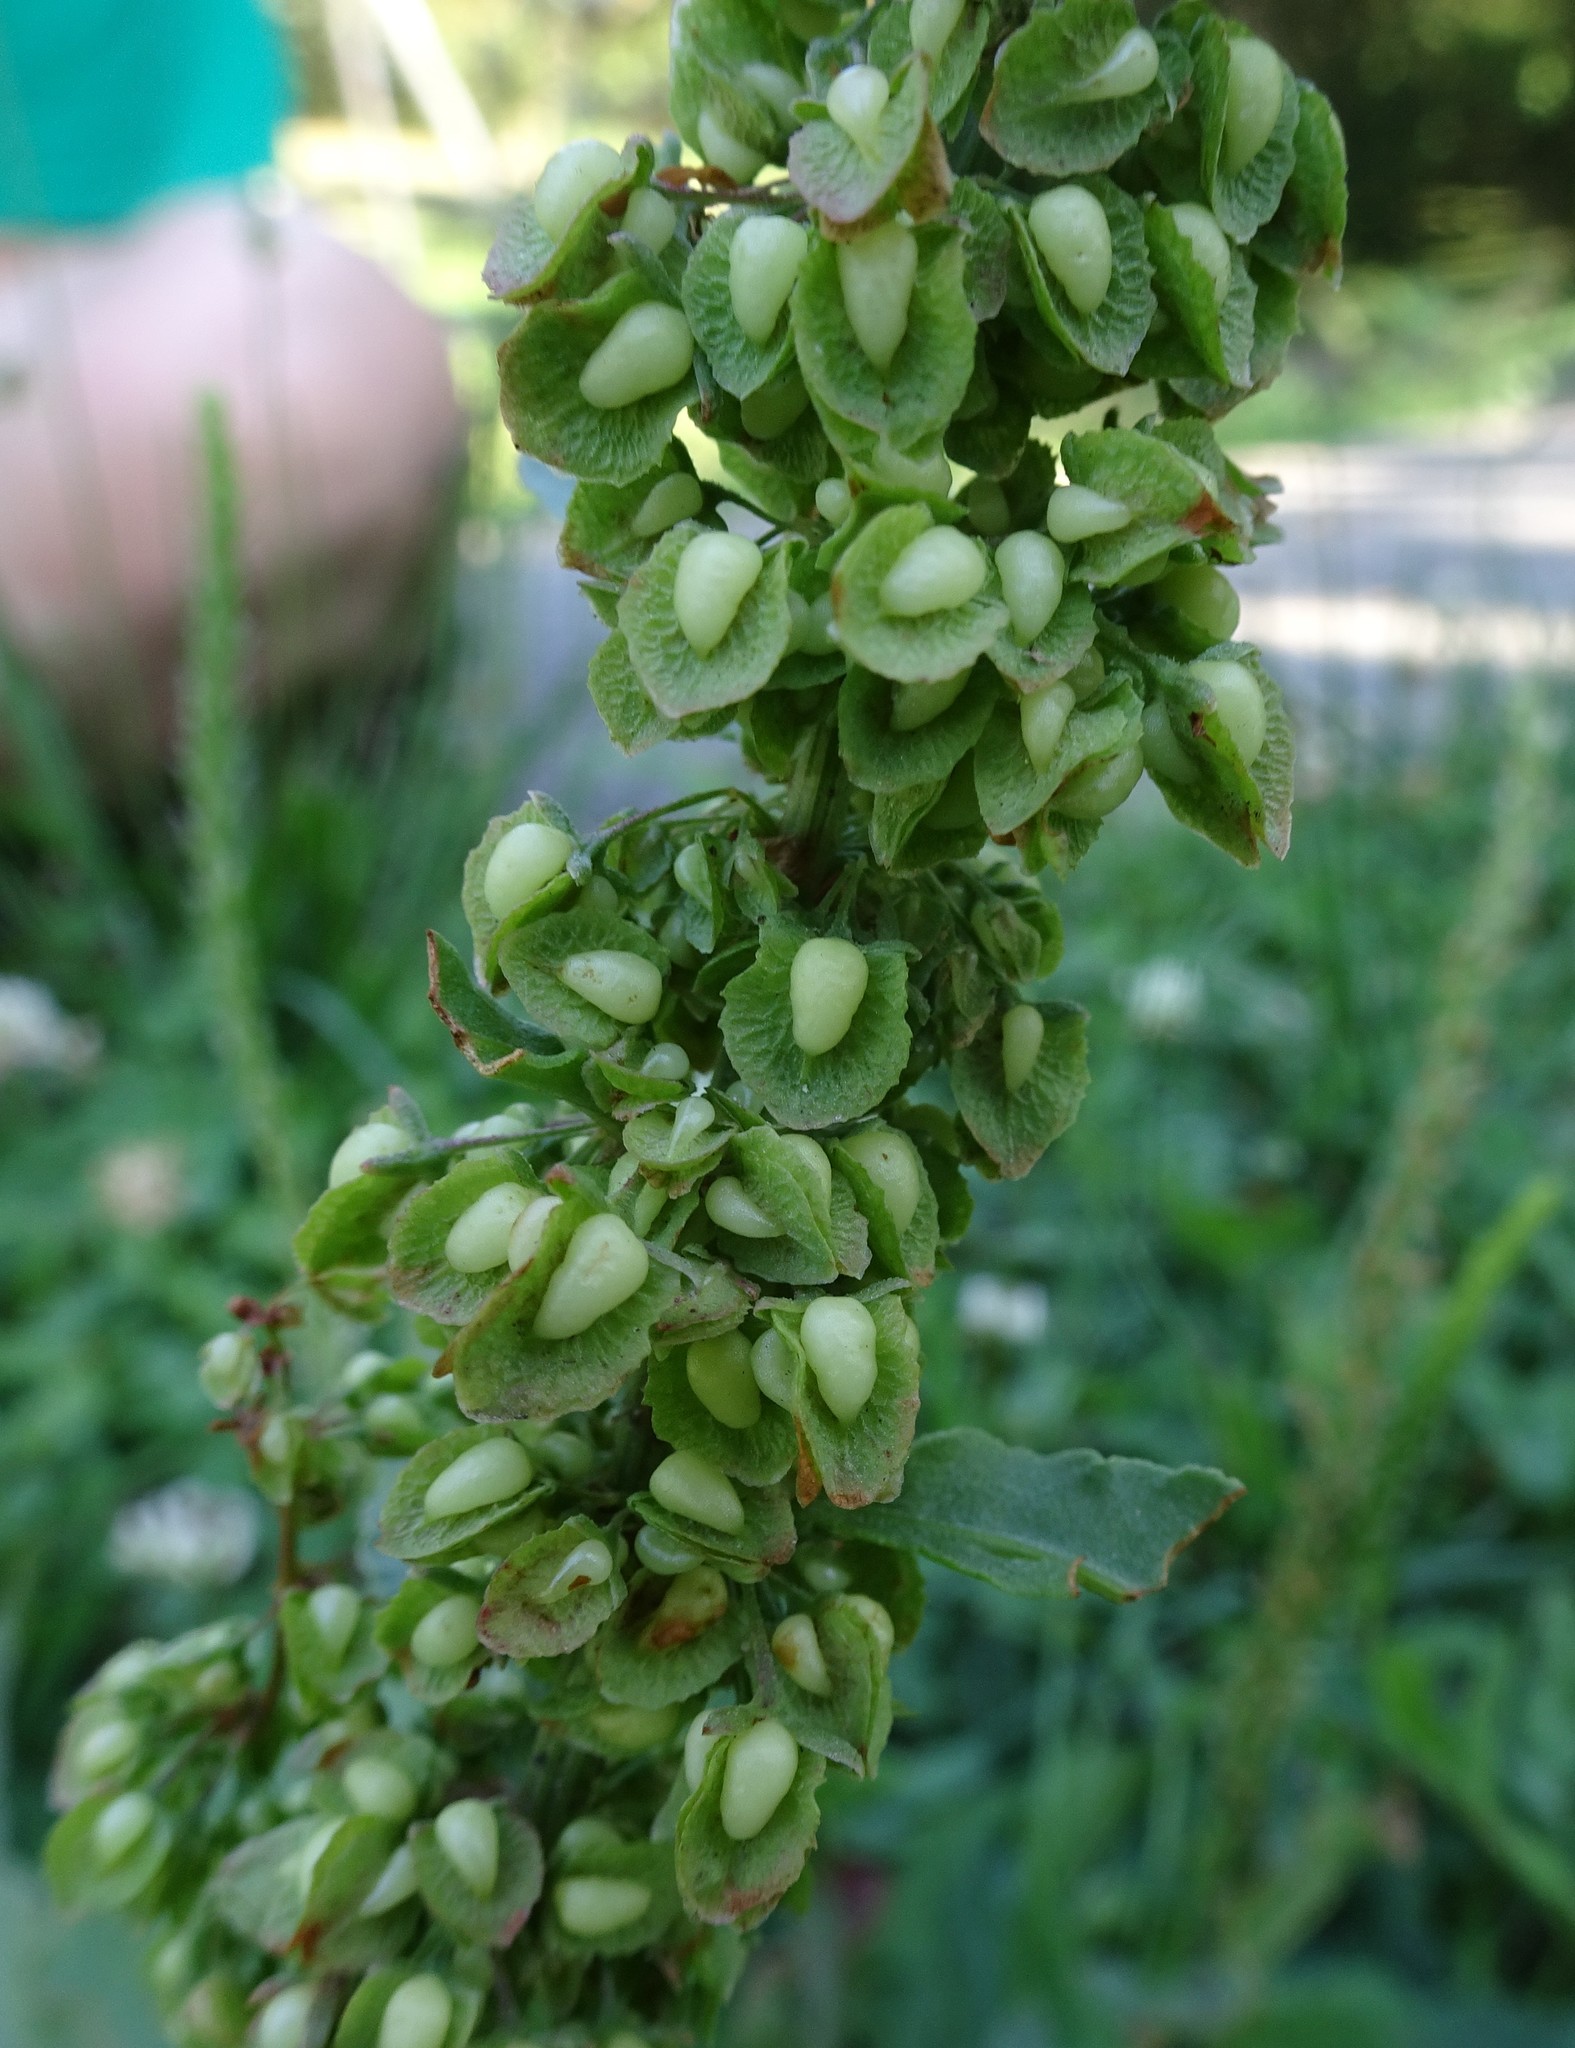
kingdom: Plantae
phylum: Tracheophyta
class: Magnoliopsida
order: Caryophyllales
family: Polygonaceae
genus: Rumex
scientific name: Rumex crispus
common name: Curled dock
